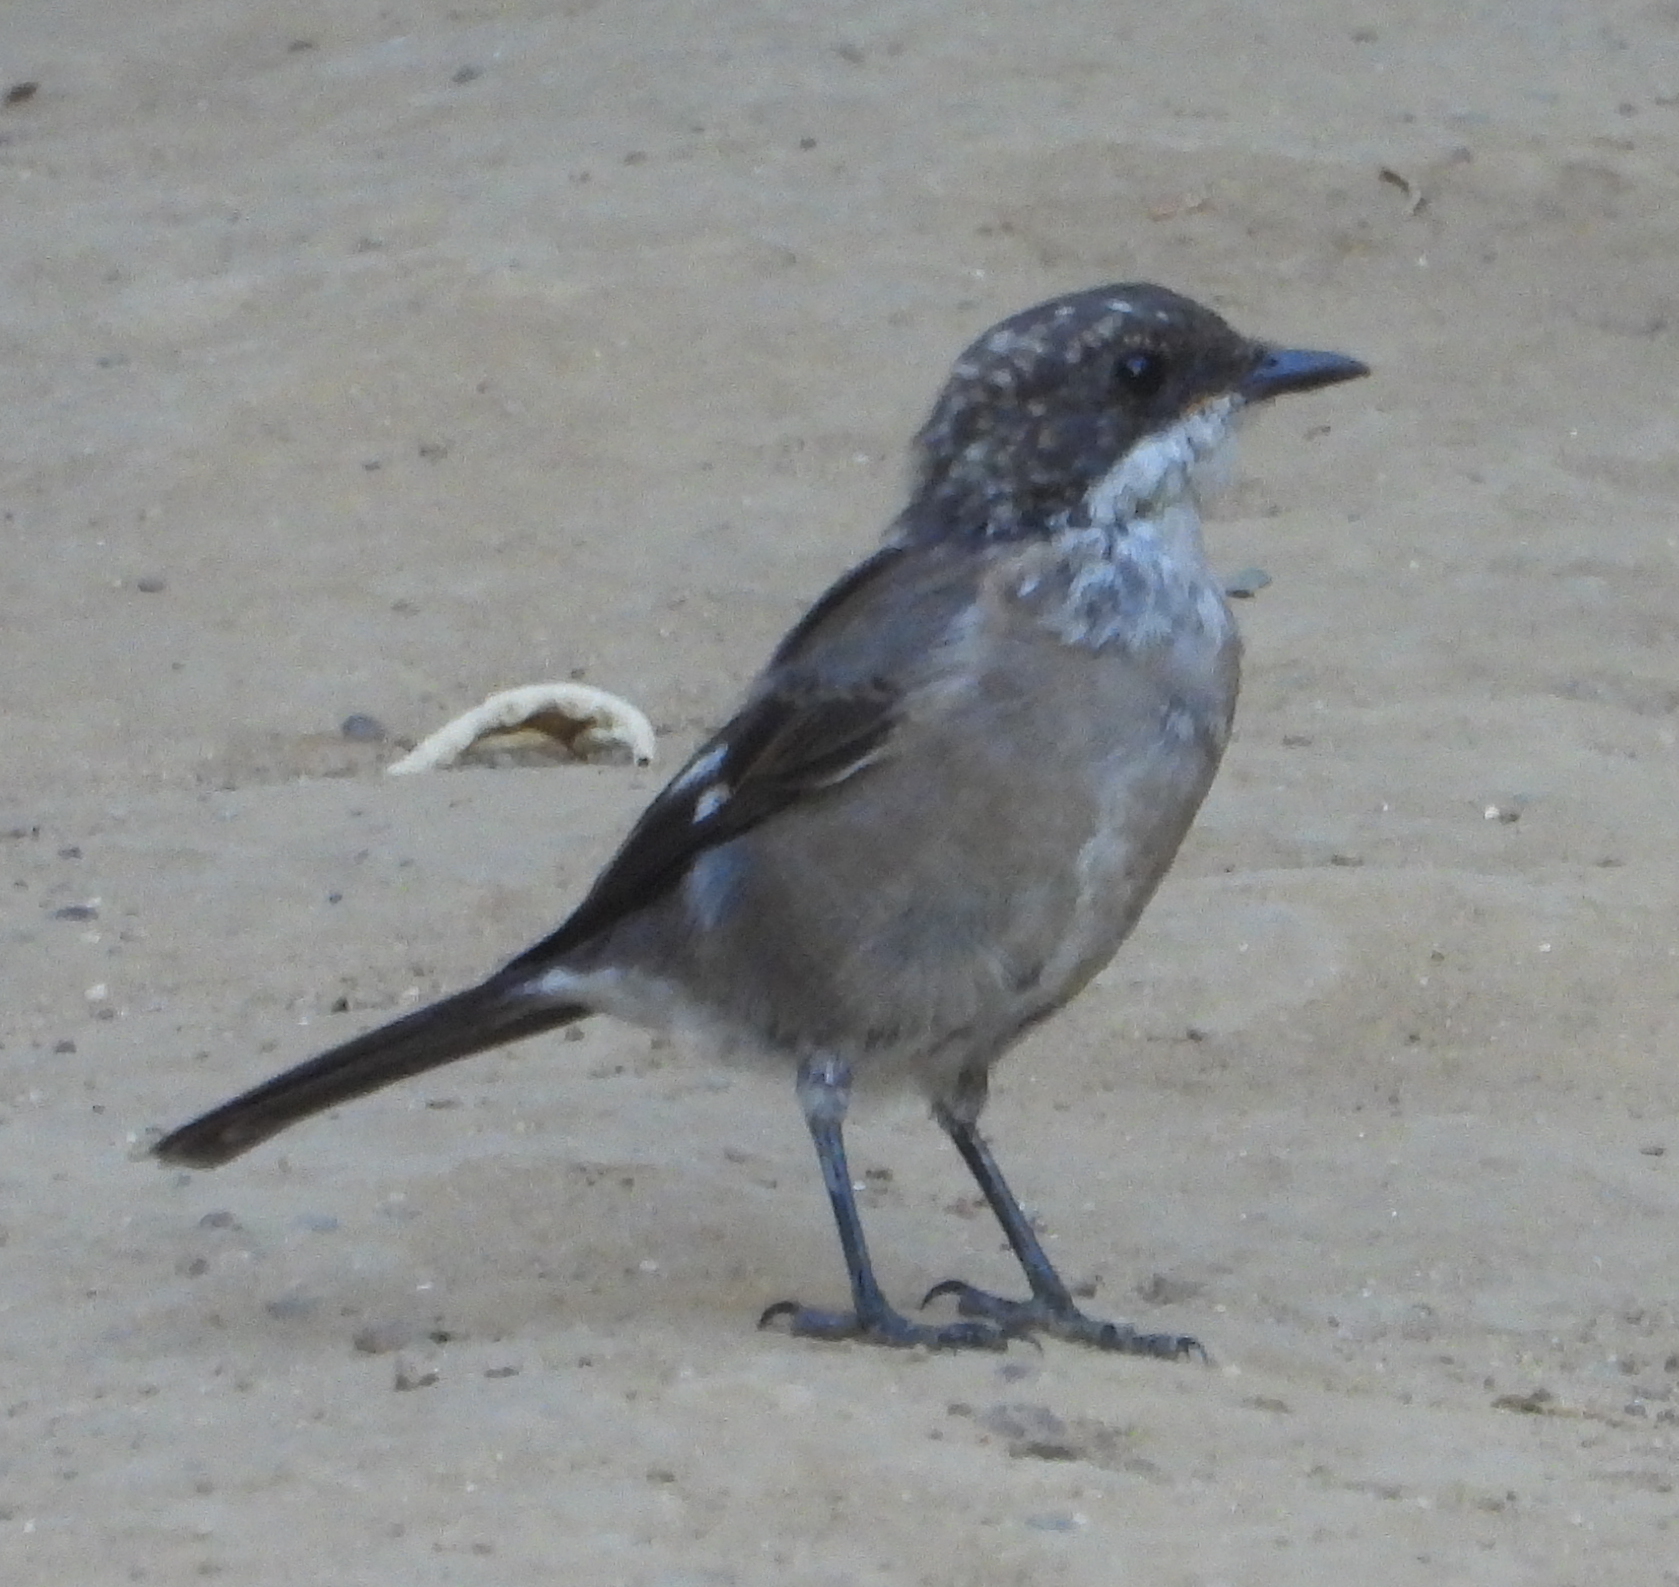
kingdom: Animalia
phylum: Chordata
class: Aves
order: Passeriformes
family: Muscicapidae
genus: Sigelus
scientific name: Sigelus silens
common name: Fiscal flycatcher
